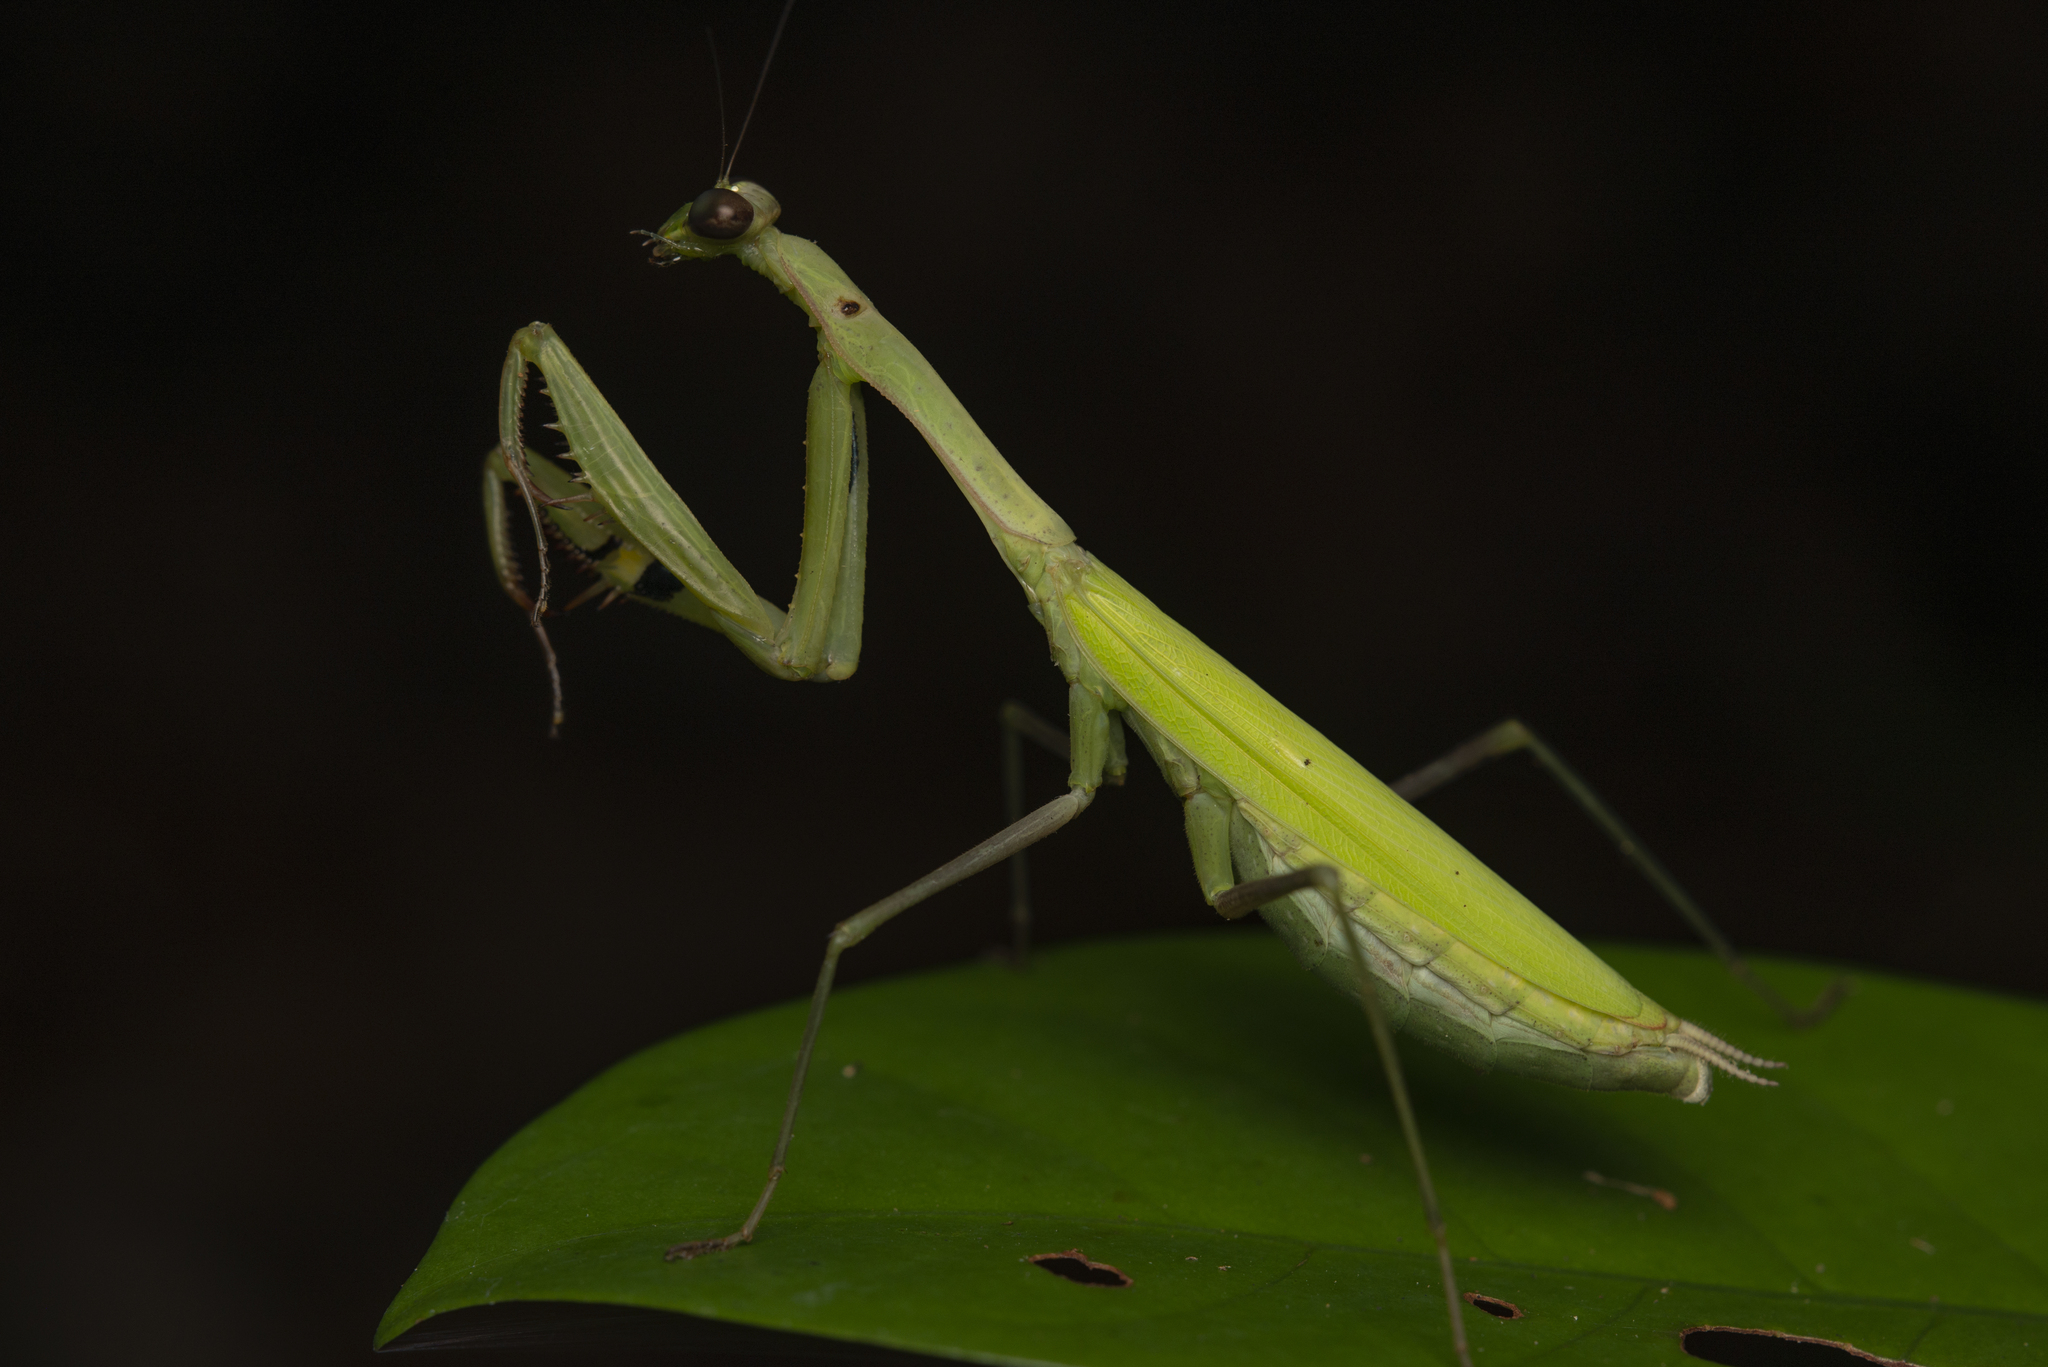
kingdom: Animalia
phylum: Arthropoda
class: Insecta
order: Mantodea
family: Mantidae
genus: Statilia
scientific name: Statilia nemoralis
